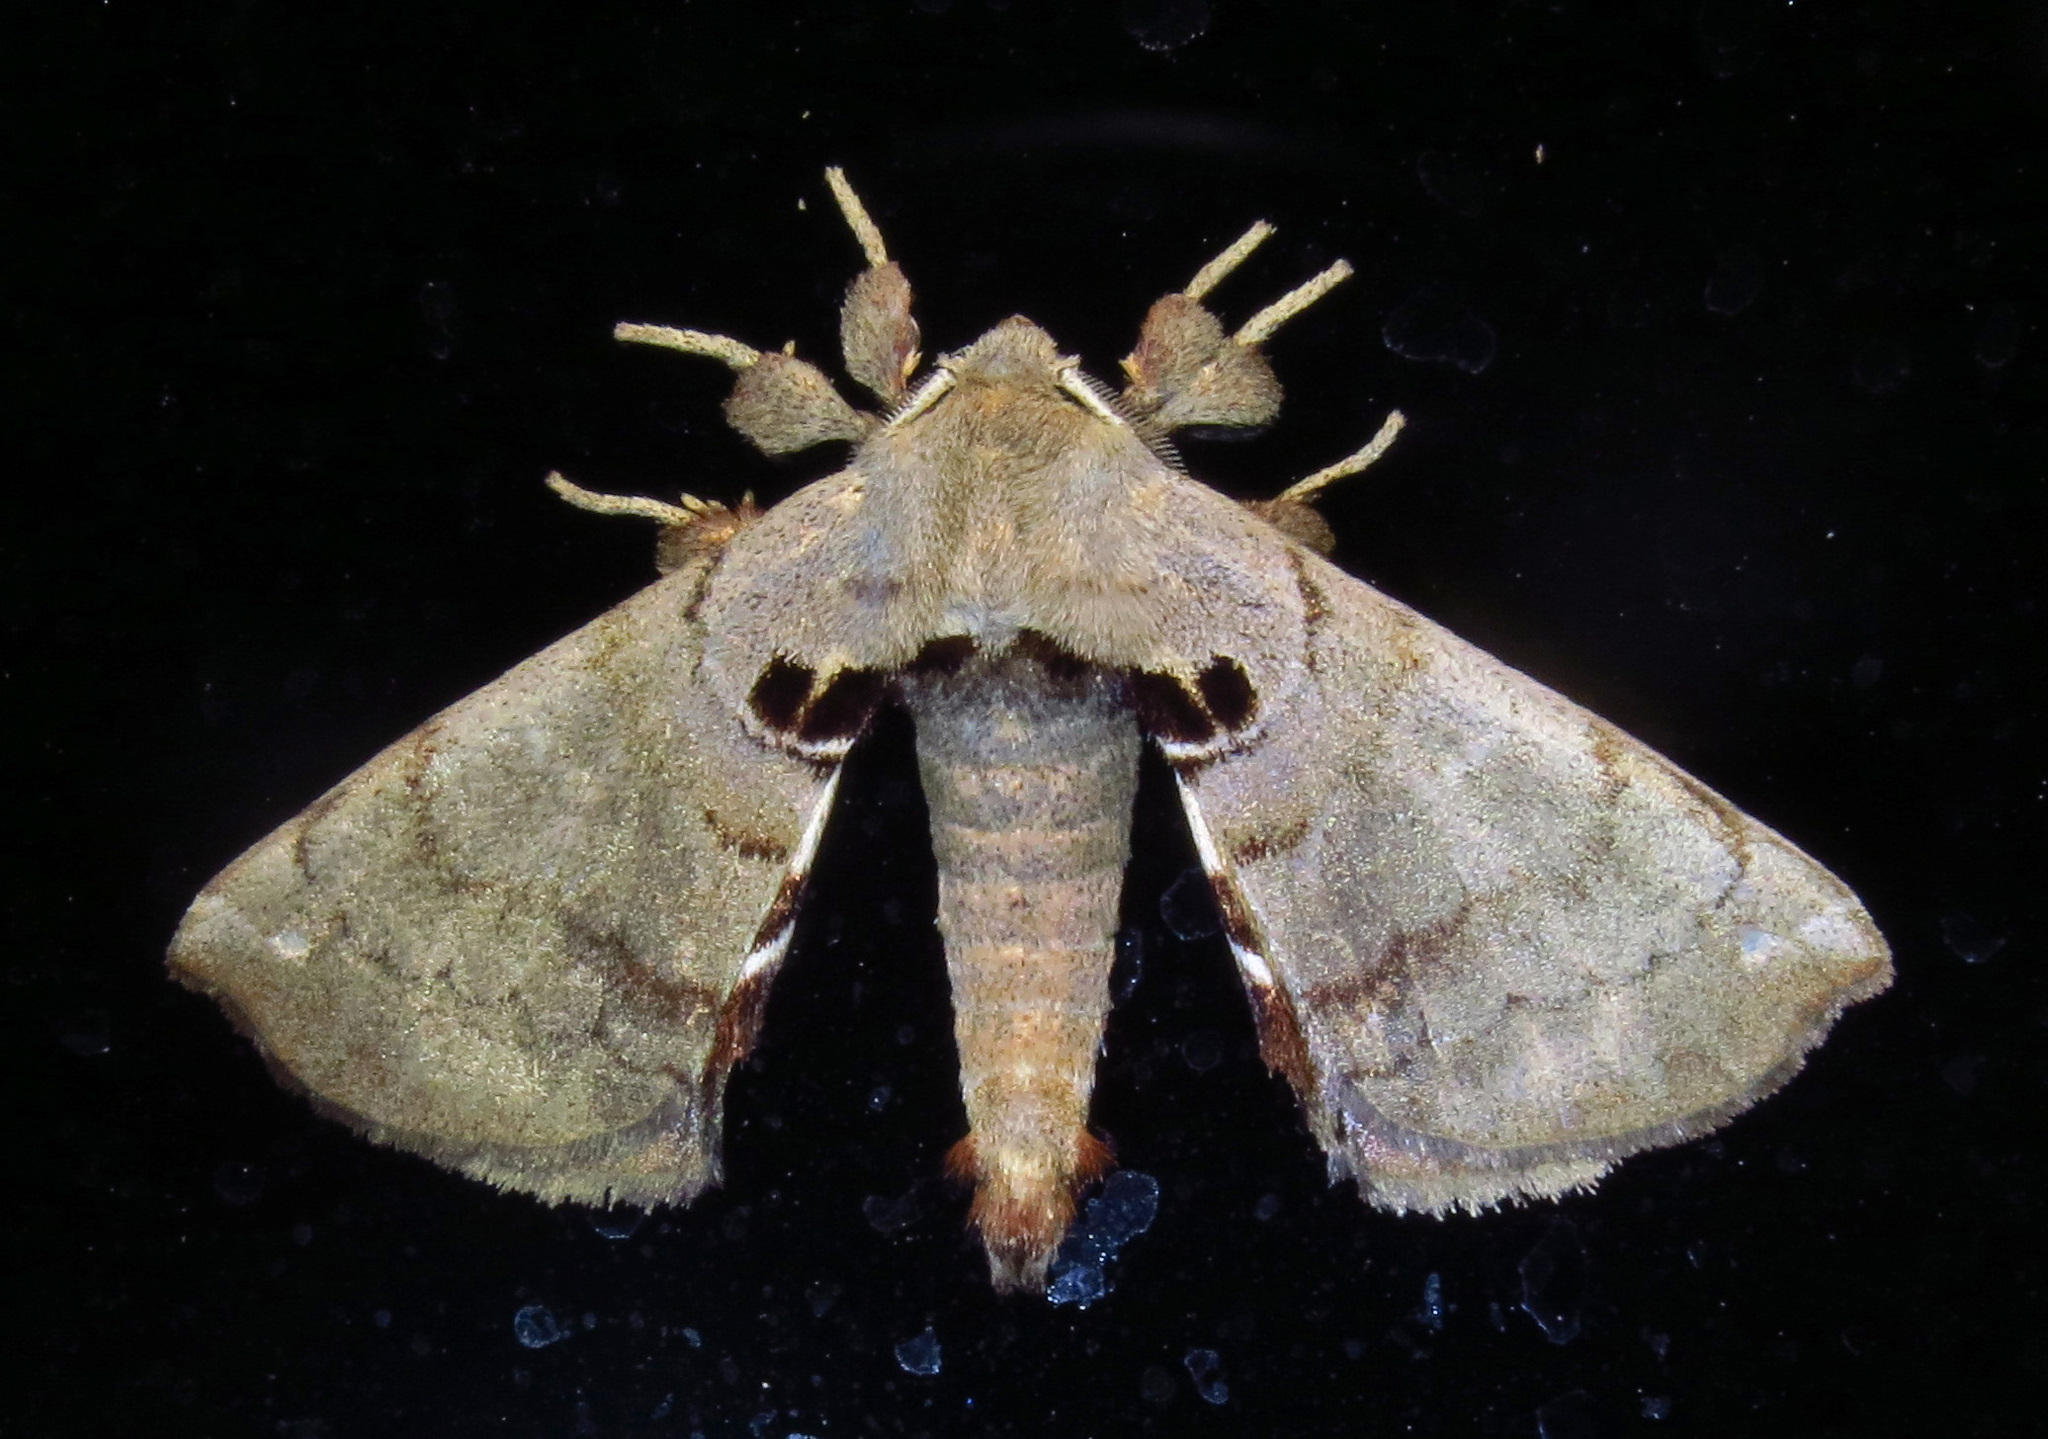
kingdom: Animalia
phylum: Arthropoda
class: Insecta
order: Lepidoptera
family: Apatelodidae
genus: Hygrochroa
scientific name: Hygrochroa Apatelodes torrefacta
